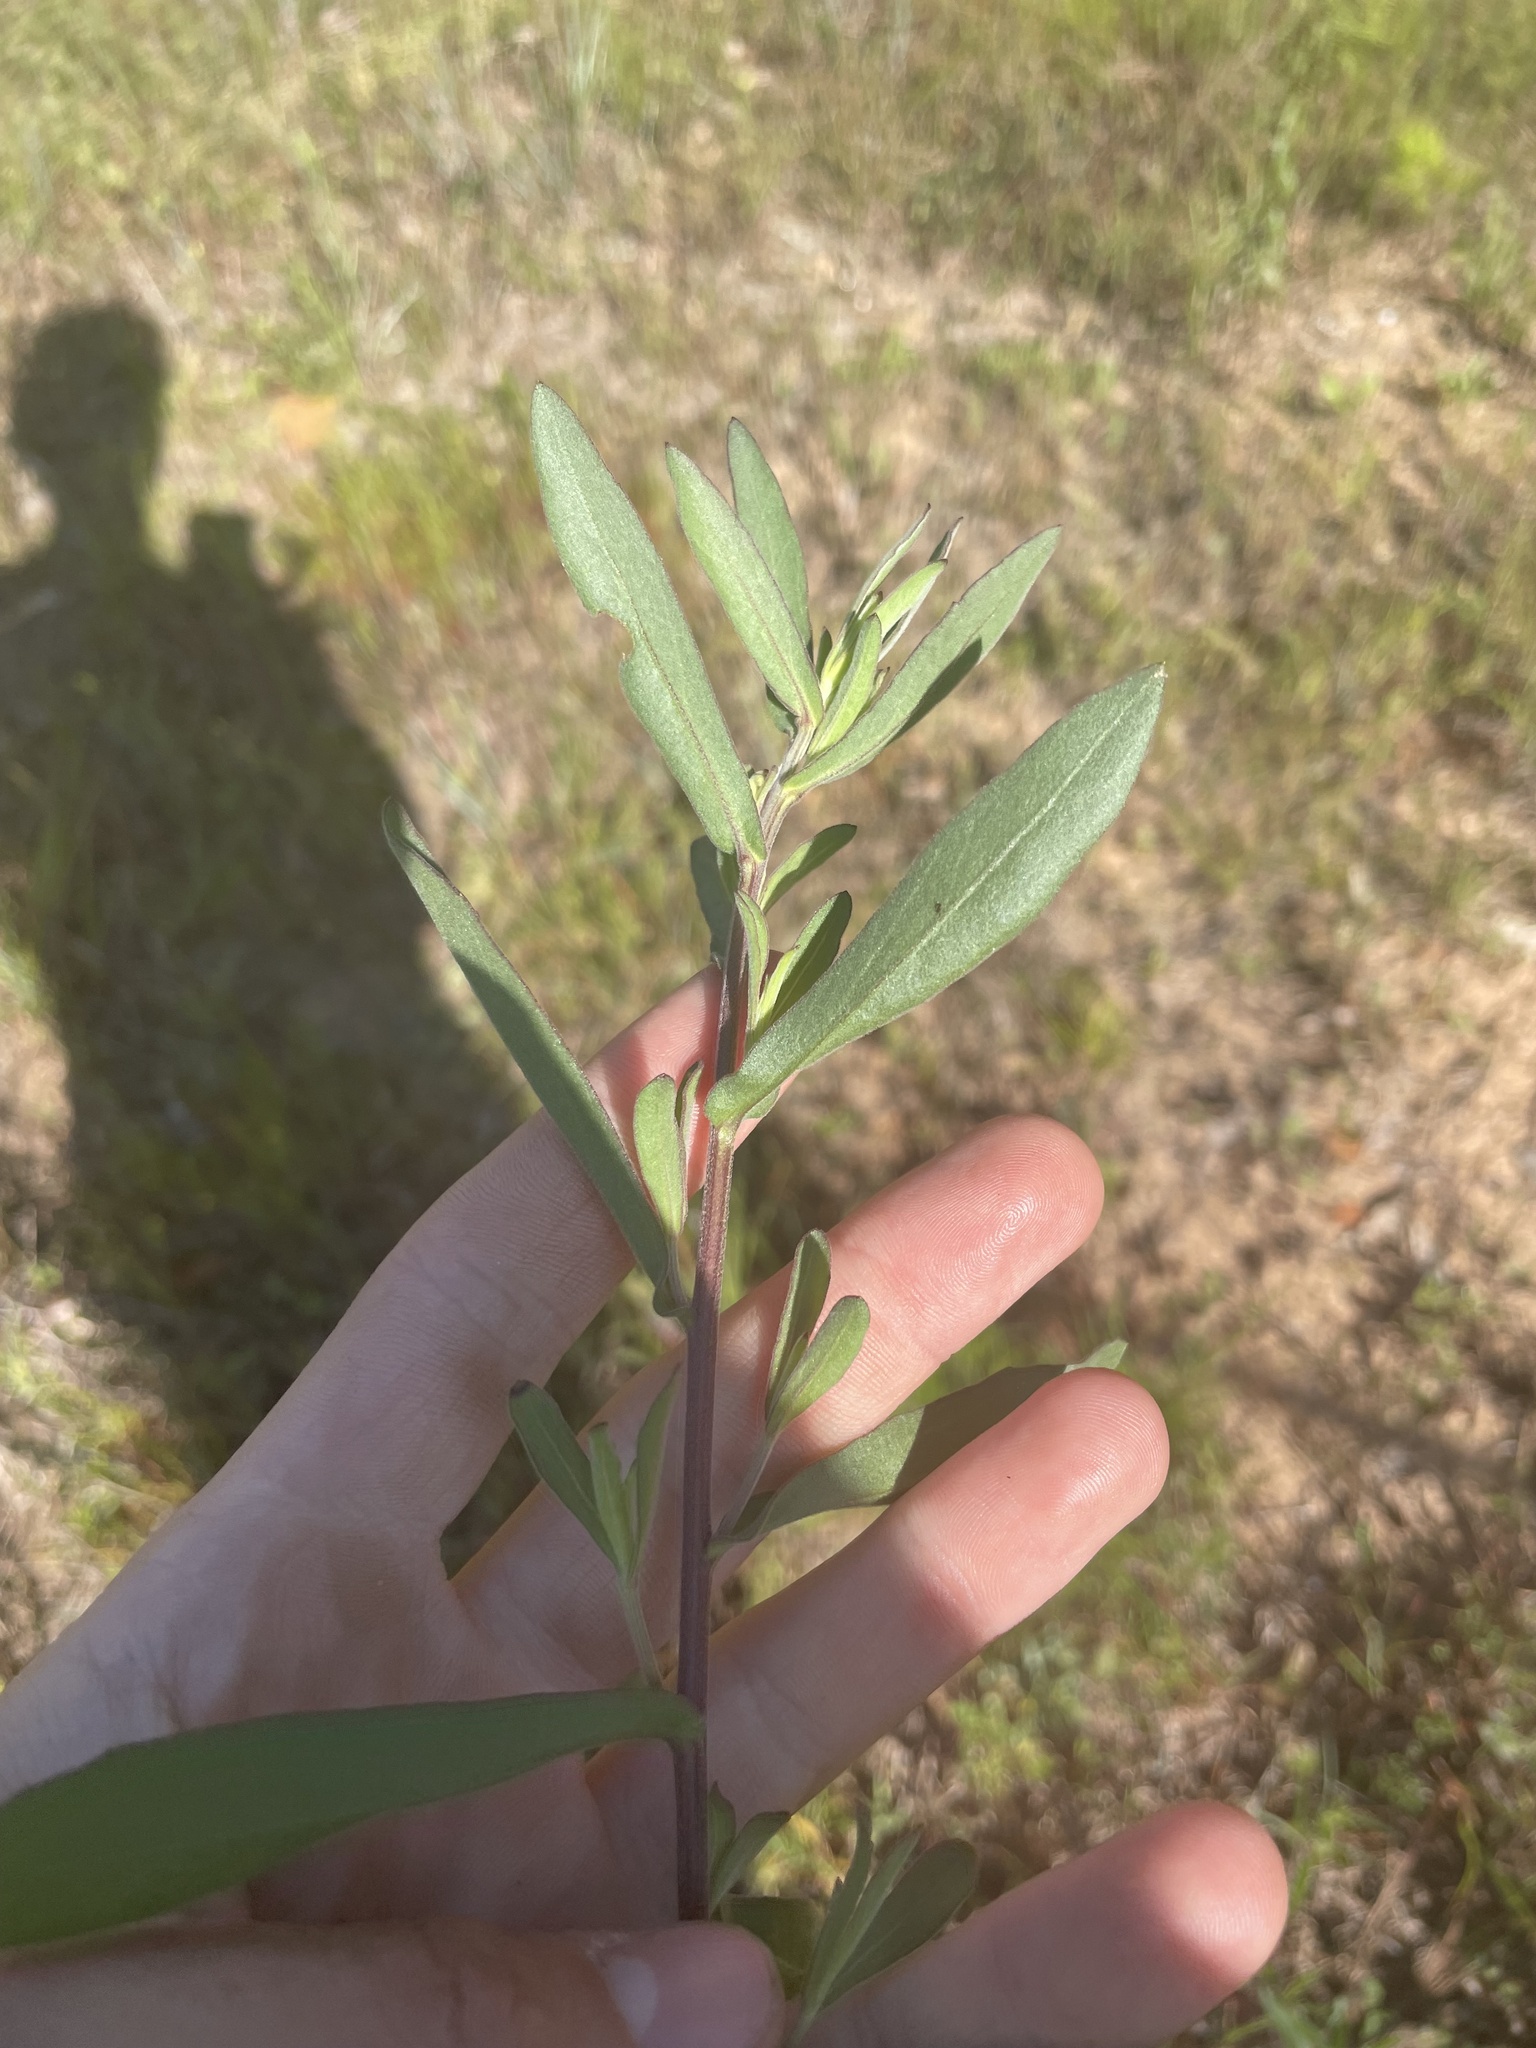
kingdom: Plantae
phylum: Tracheophyta
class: Magnoliopsida
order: Asterales
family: Asteraceae
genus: Gaillardia
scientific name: Gaillardia aestivalis
